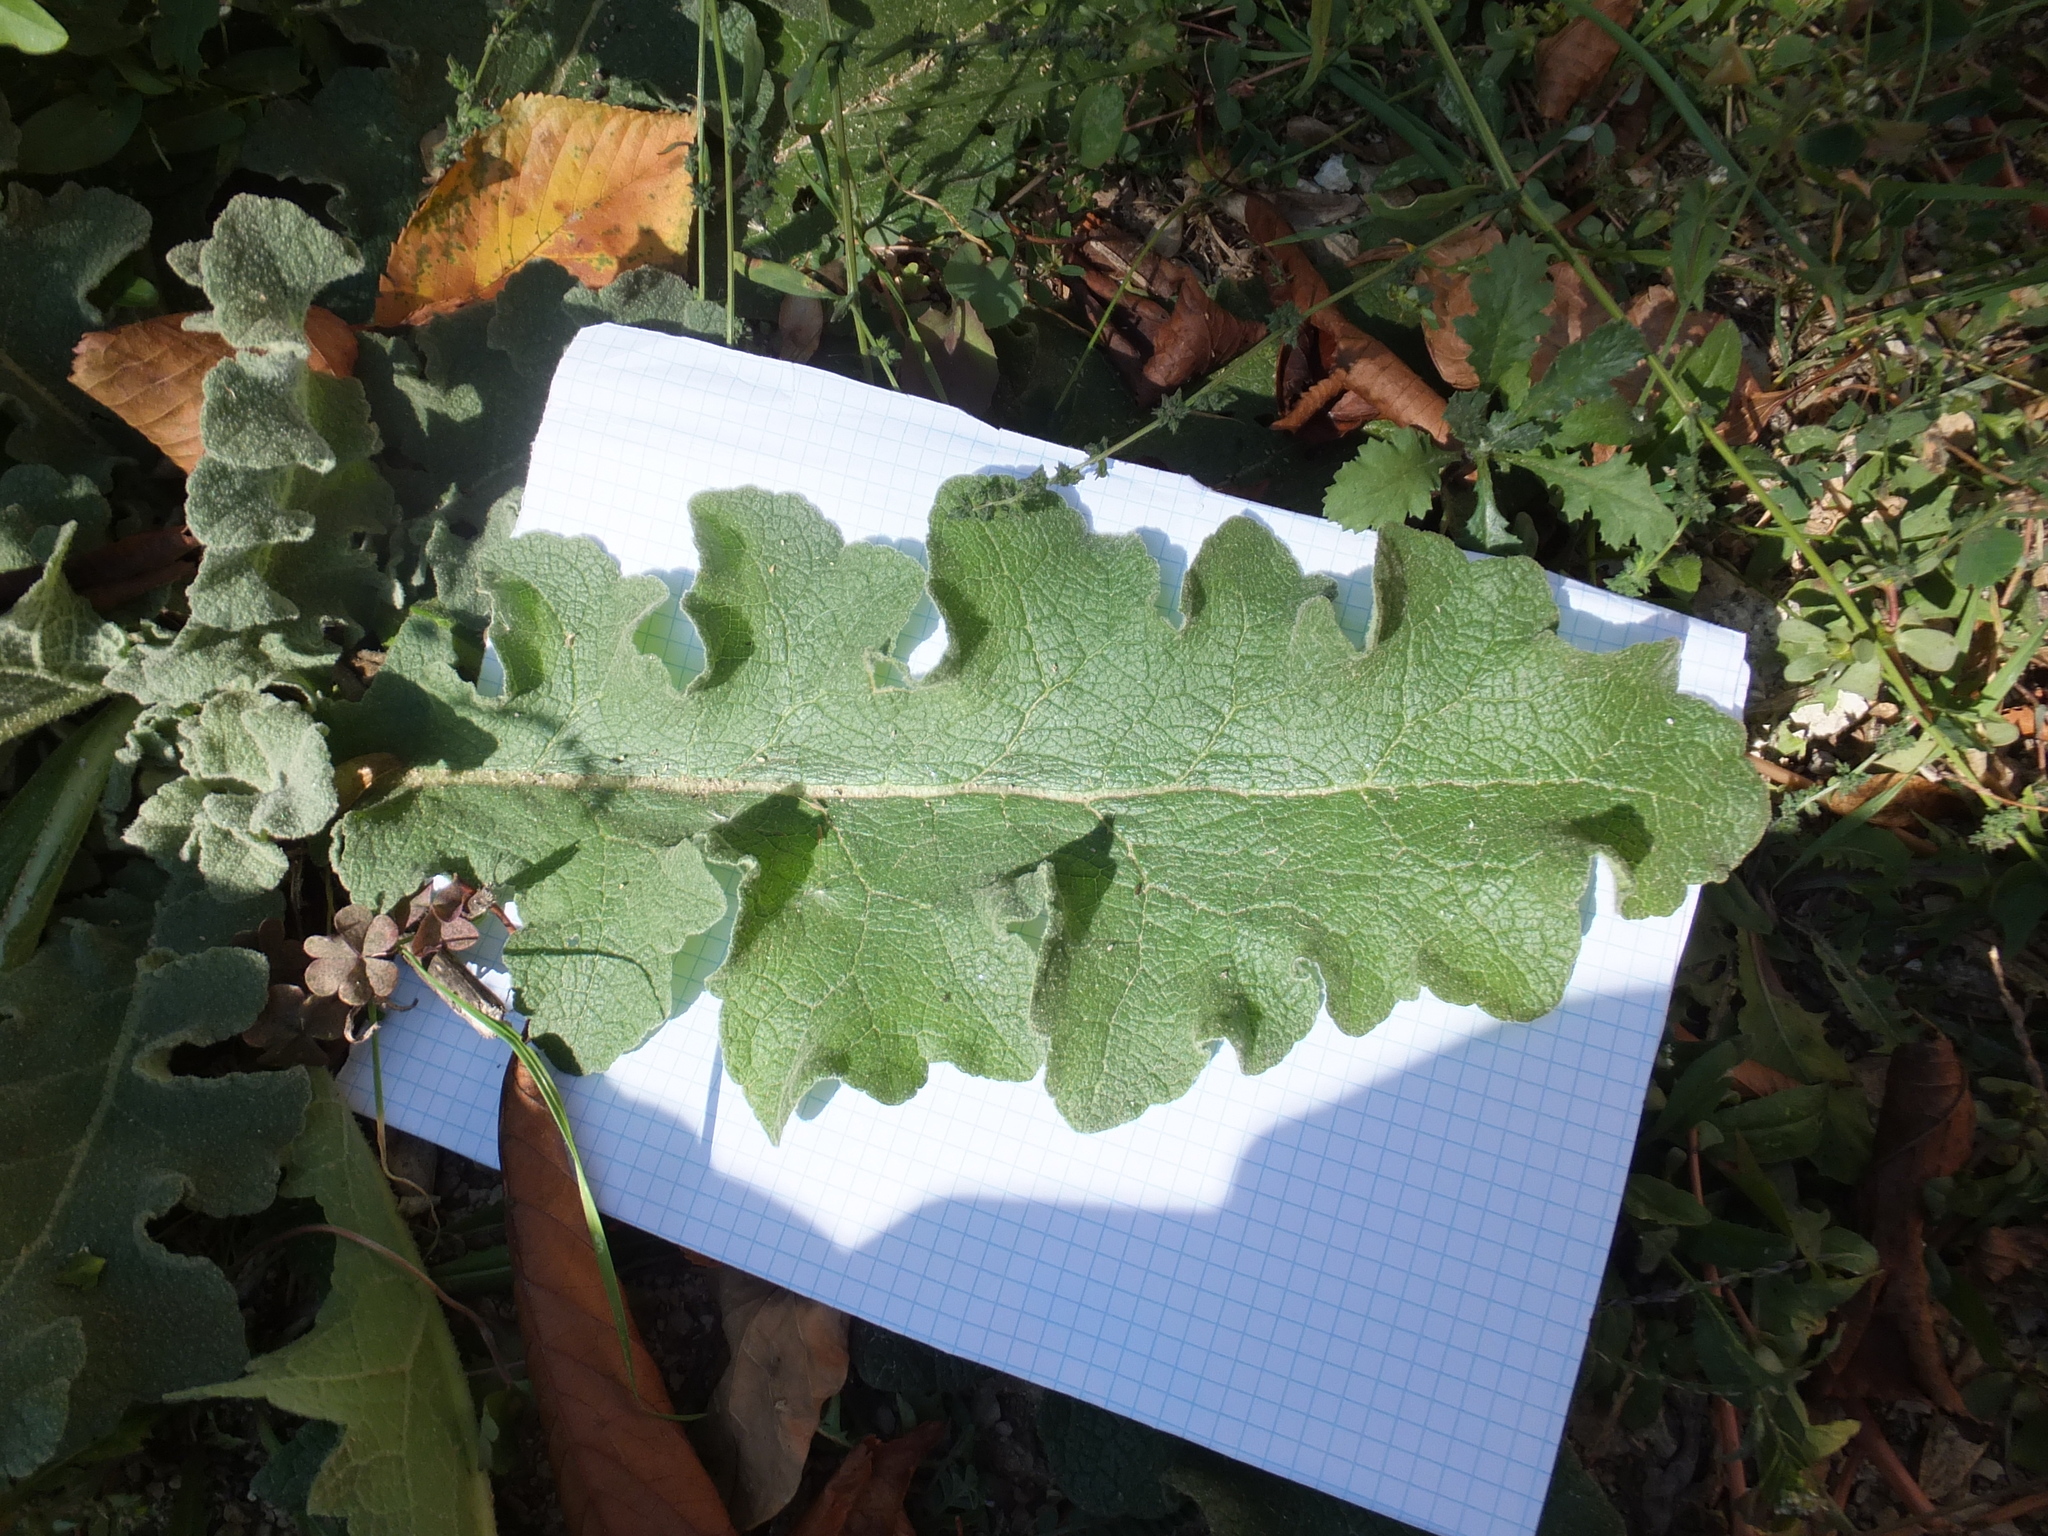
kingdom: Plantae
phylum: Tracheophyta
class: Magnoliopsida
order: Lamiales
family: Scrophulariaceae
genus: Verbascum
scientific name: Verbascum sinuatum
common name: Wavyleaf mullein
